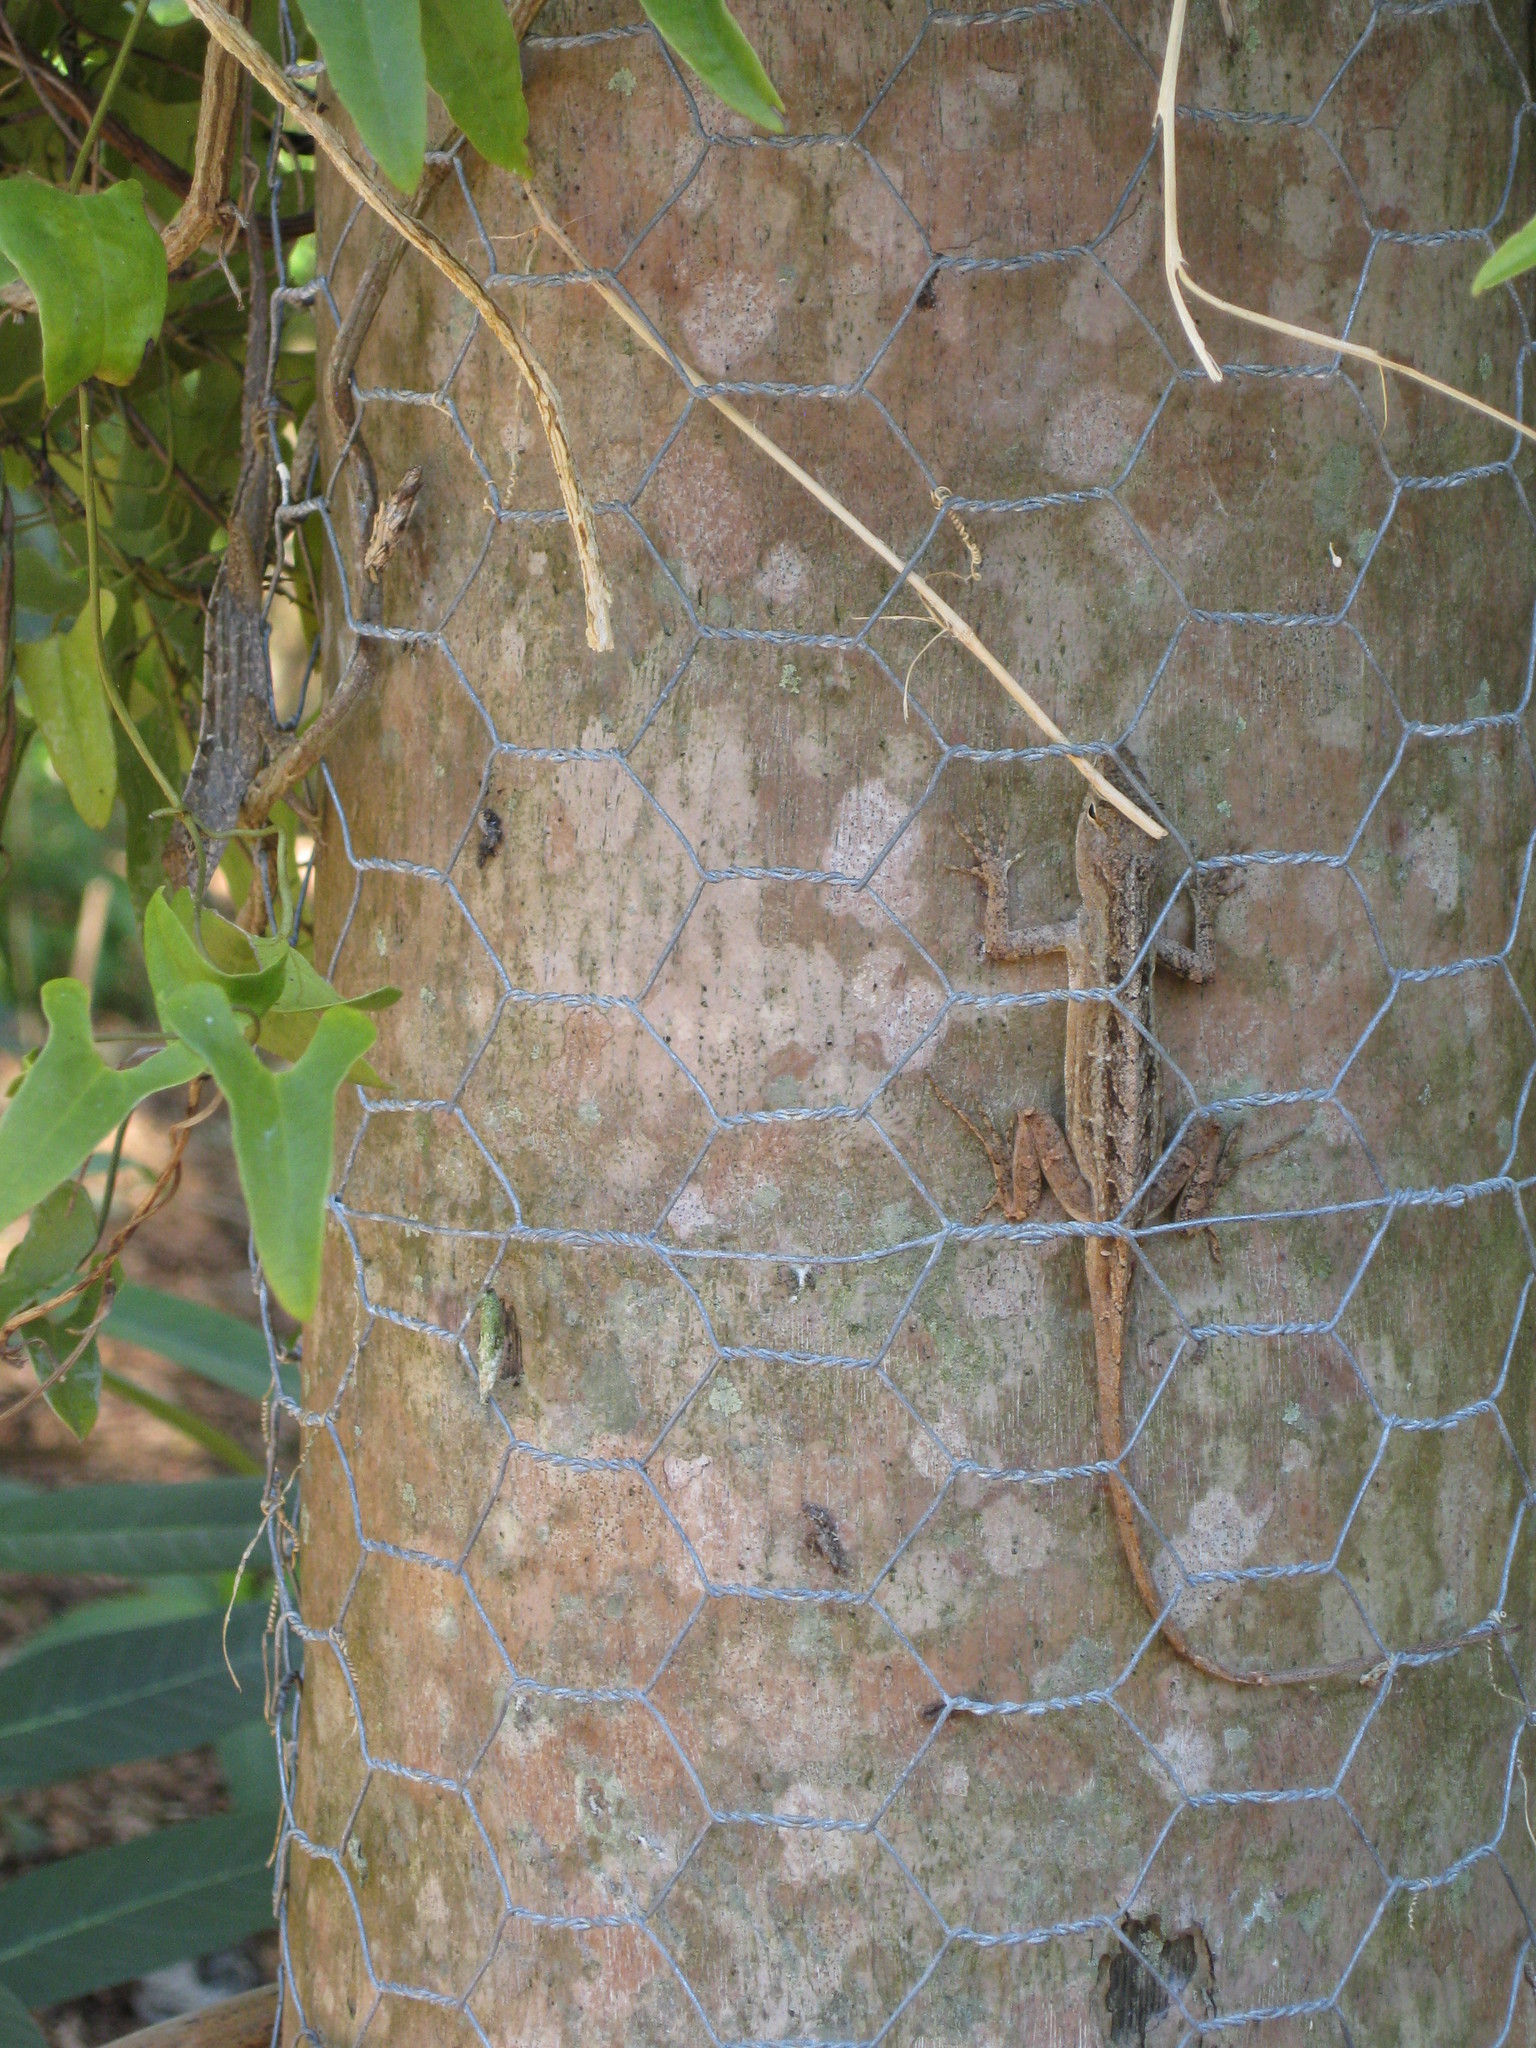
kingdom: Animalia
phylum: Chordata
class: Squamata
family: Dactyloidae
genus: Anolis
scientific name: Anolis sagrei
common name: Brown anole
